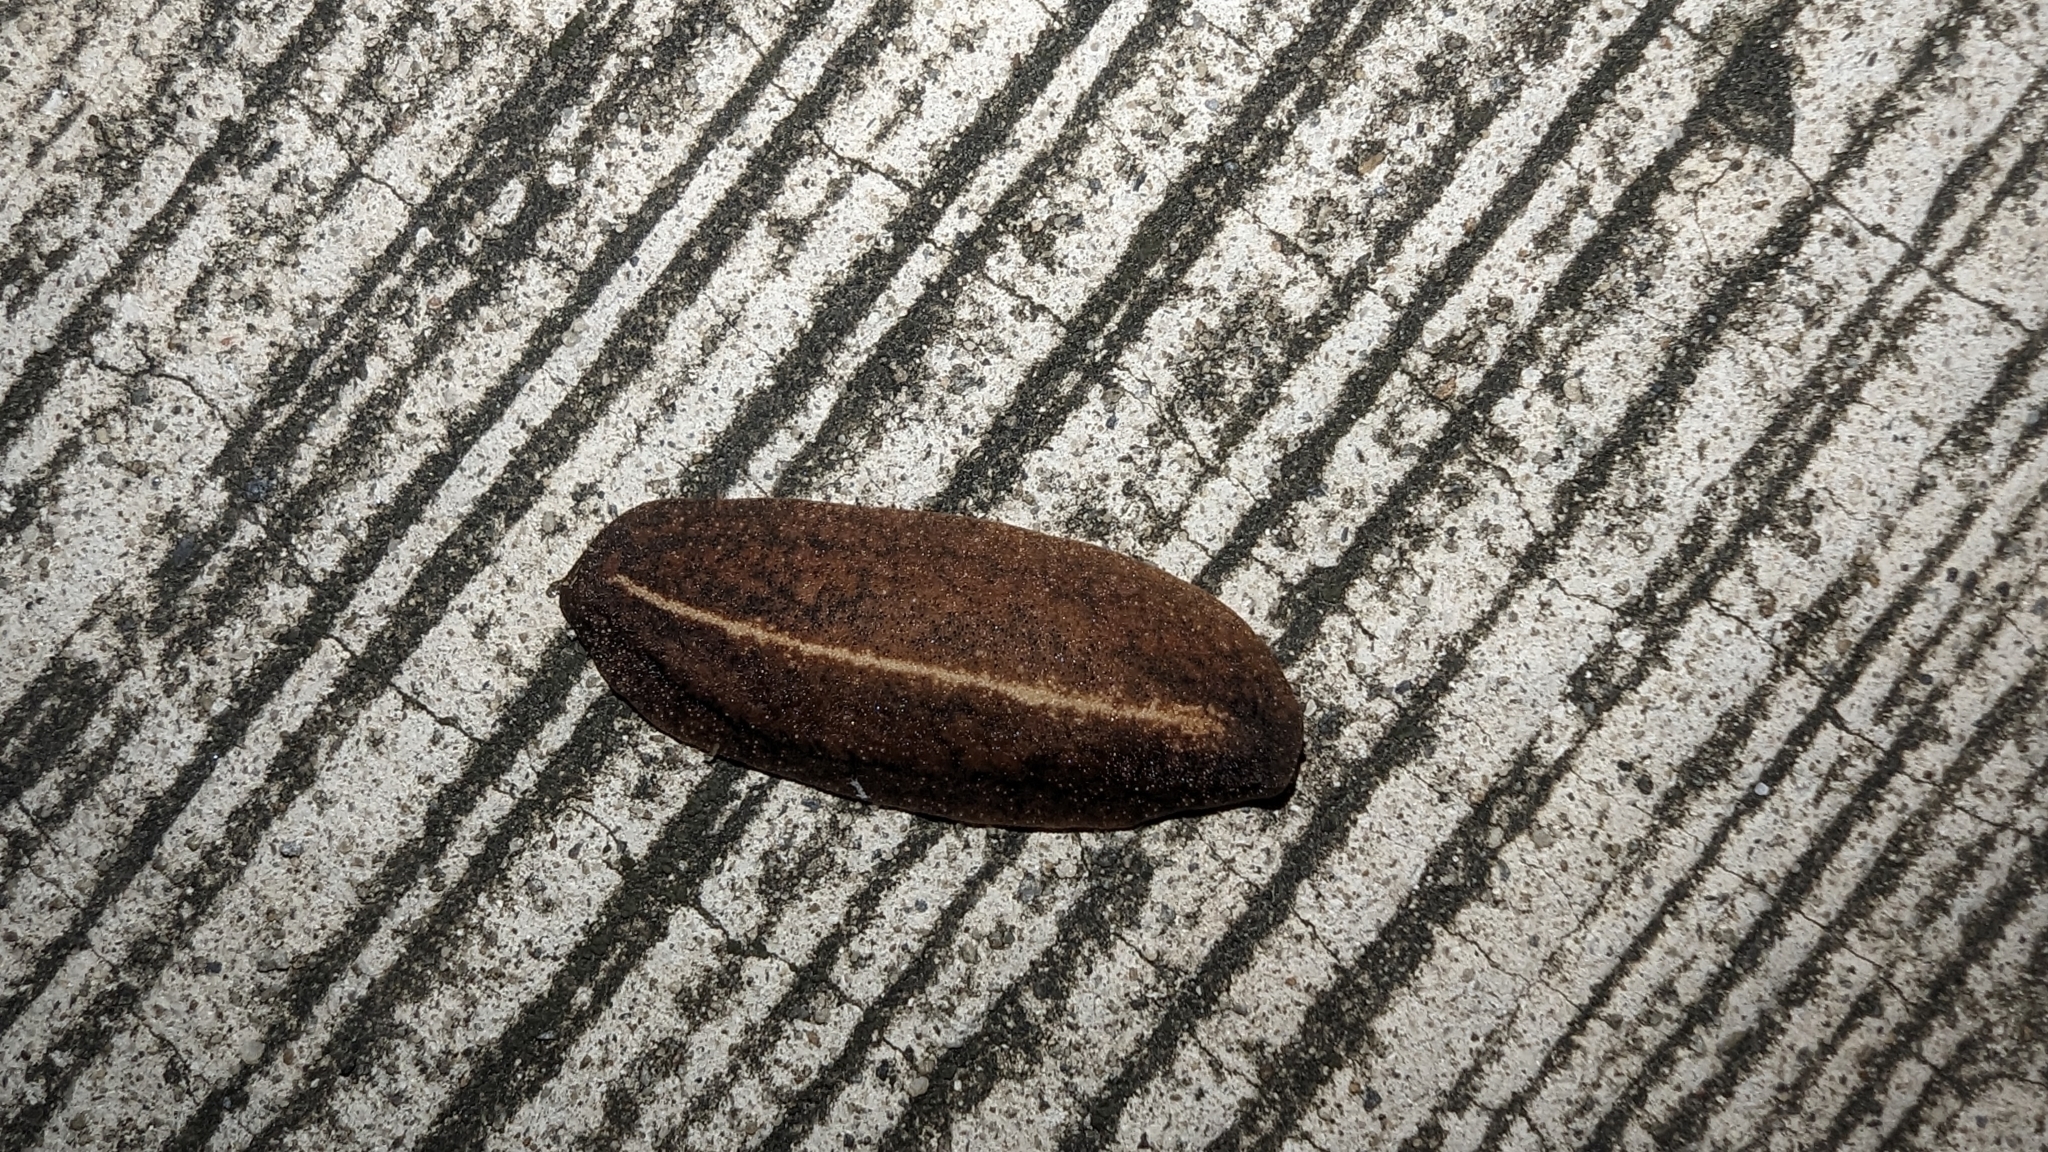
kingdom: Animalia
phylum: Mollusca
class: Gastropoda
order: Systellommatophora
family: Veronicellidae
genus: Laevicaulis
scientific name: Laevicaulis alte
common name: Tropical leatherleaf
